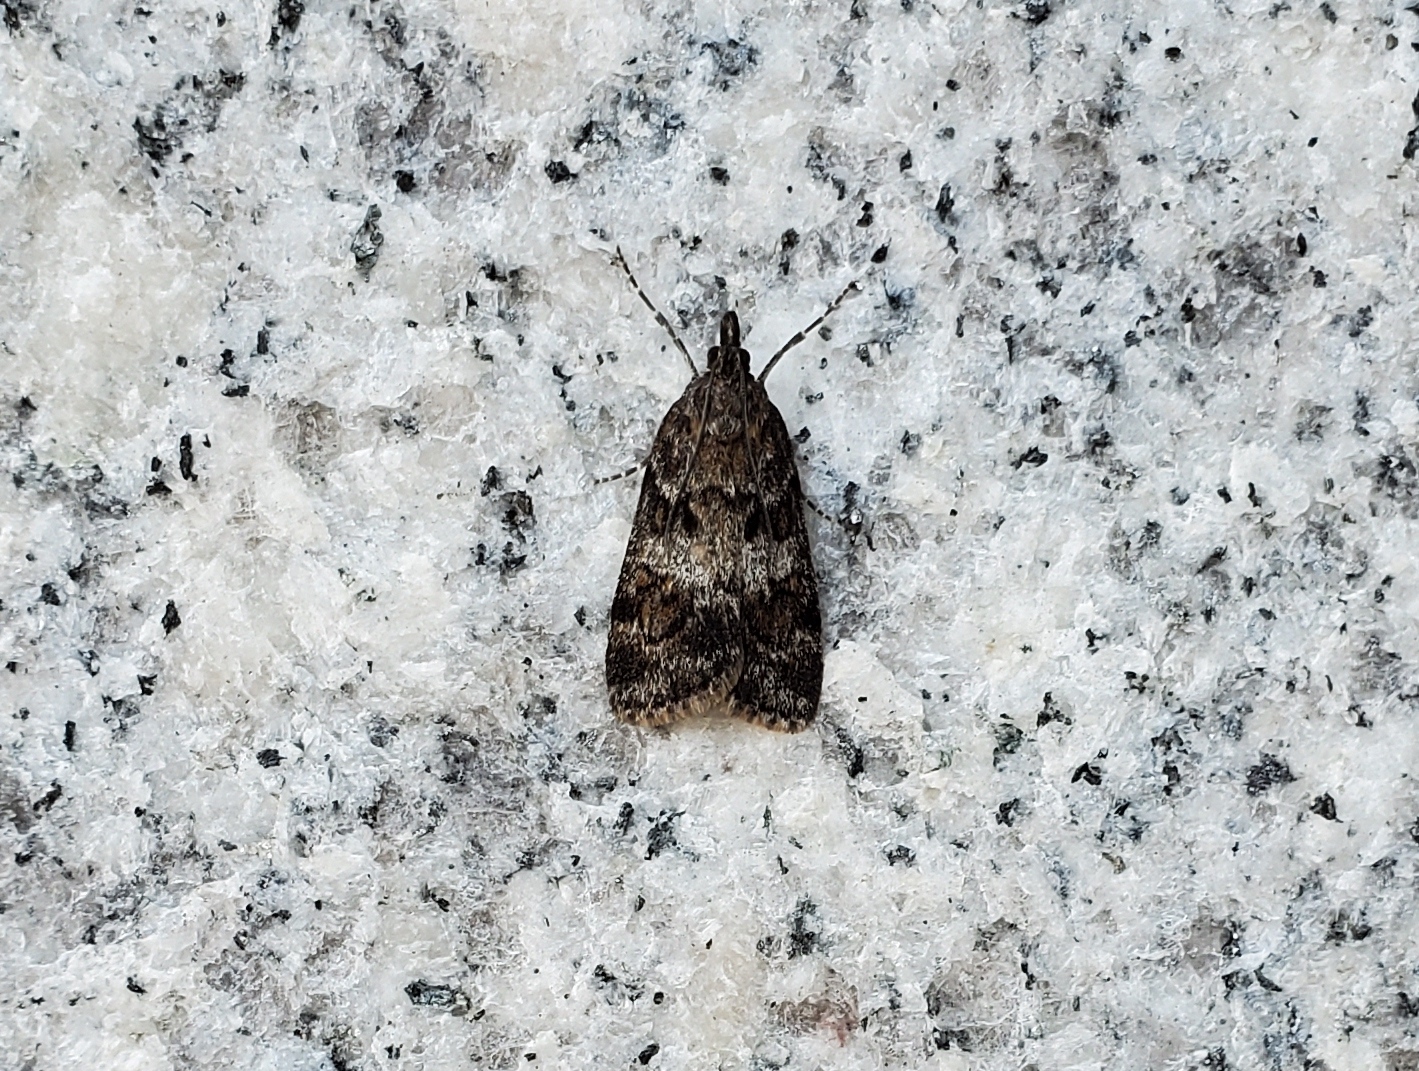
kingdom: Animalia
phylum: Arthropoda
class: Insecta
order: Lepidoptera
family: Crambidae
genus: Gesneria
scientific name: Gesneria centuriella
